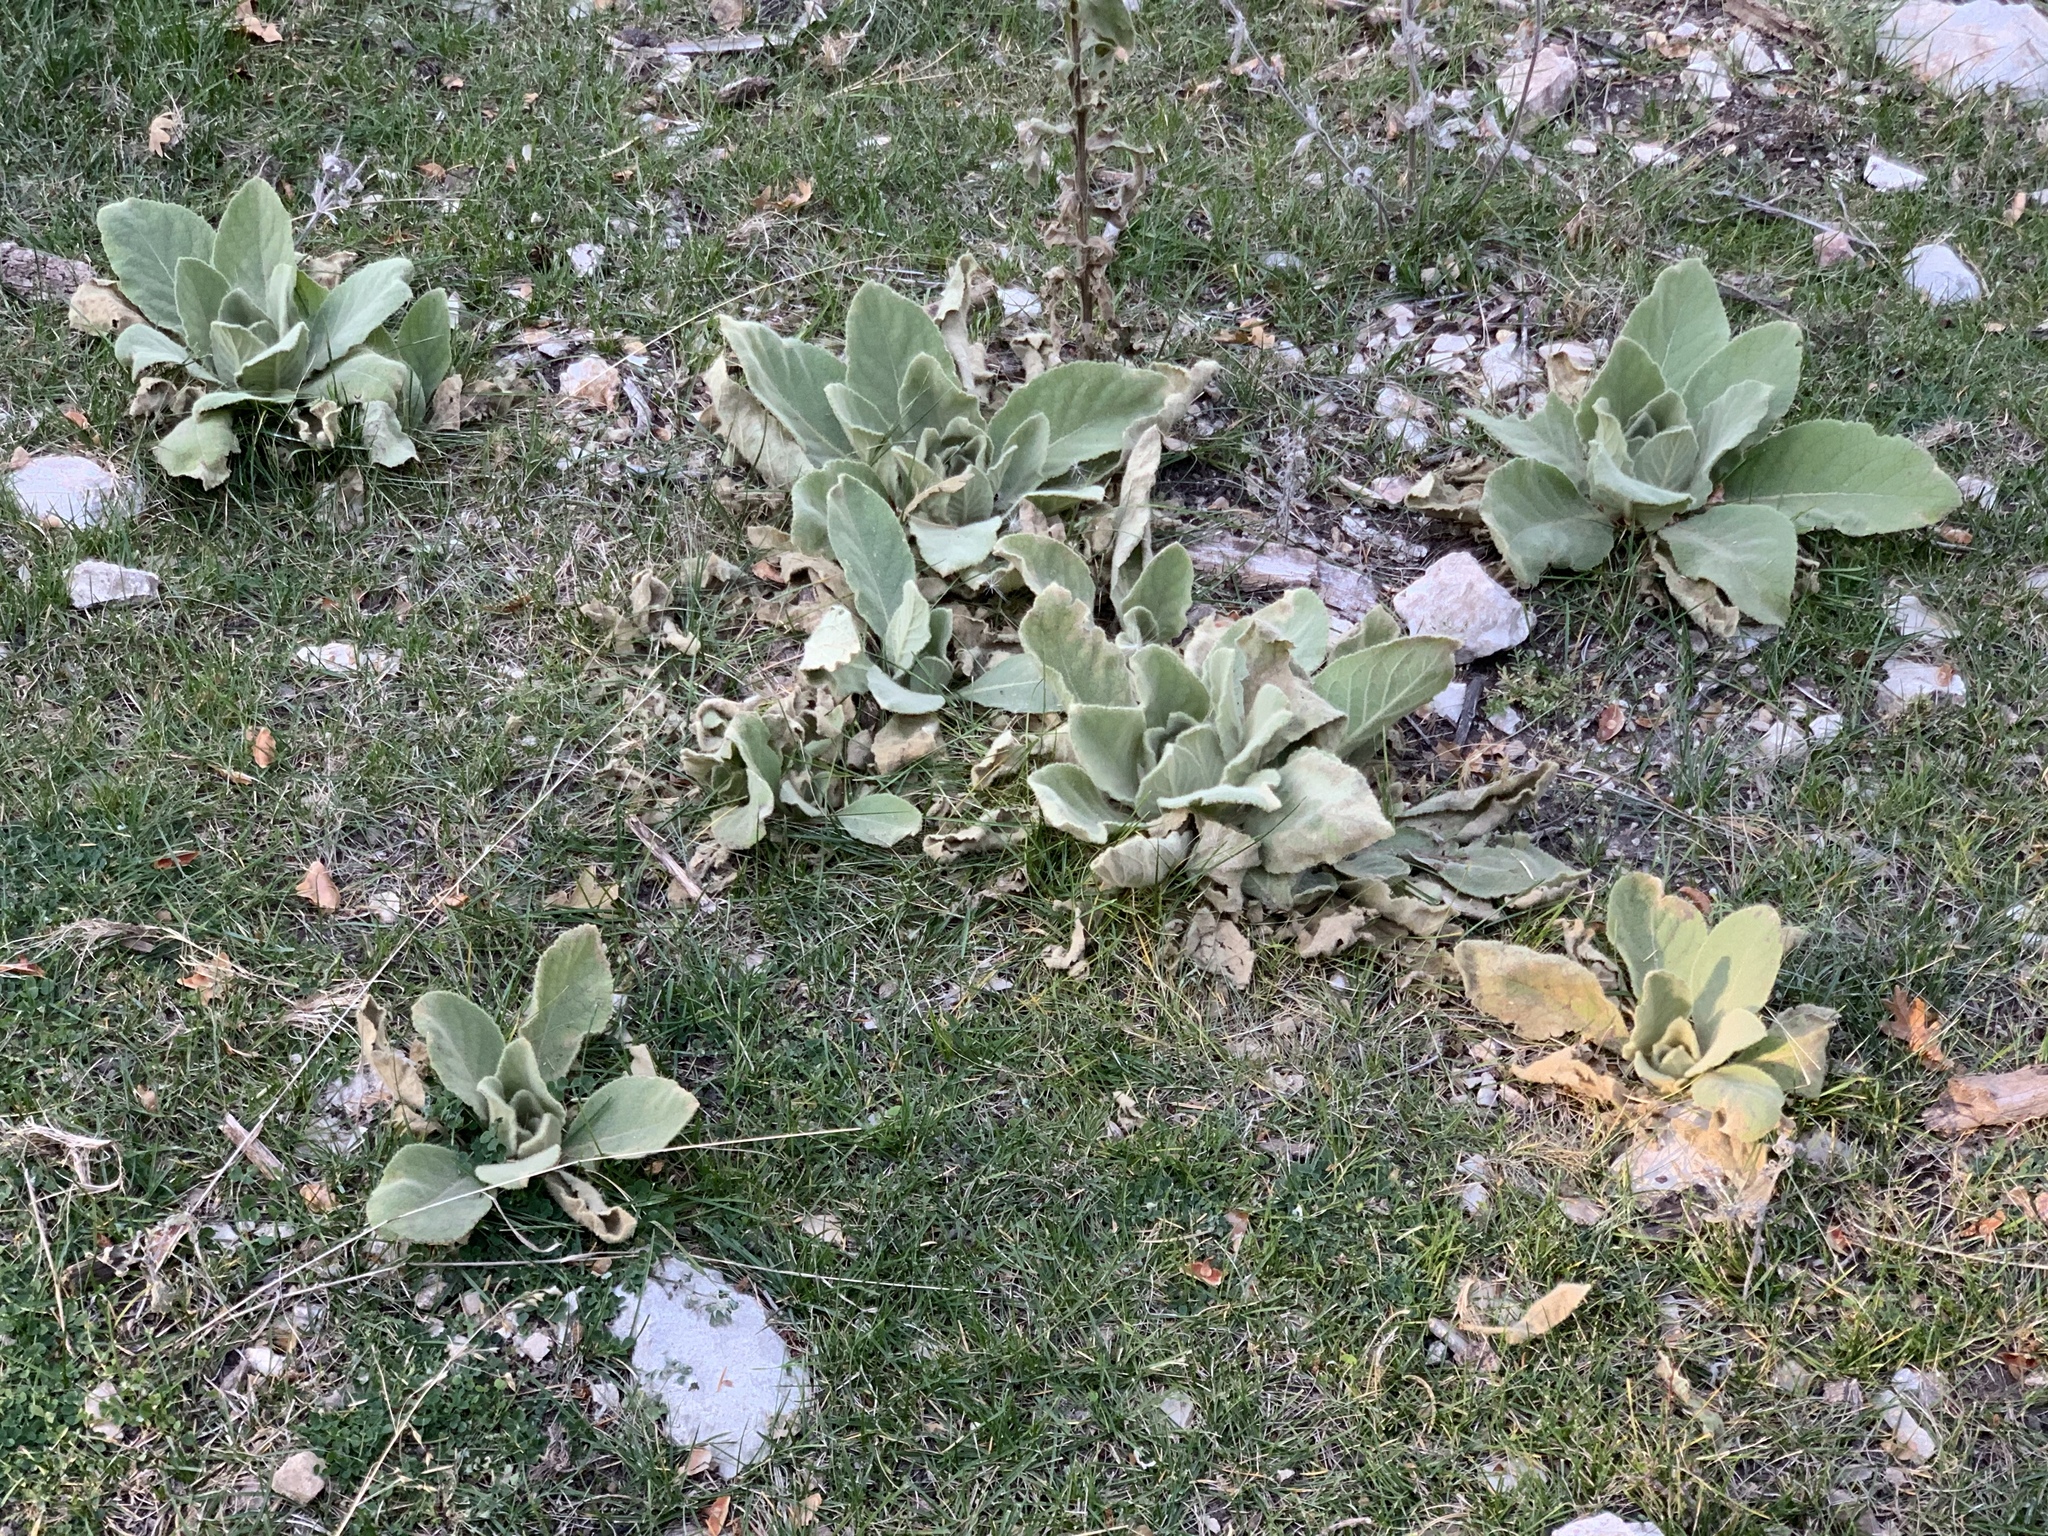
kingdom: Plantae
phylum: Tracheophyta
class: Magnoliopsida
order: Lamiales
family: Scrophulariaceae
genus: Verbascum
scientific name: Verbascum thapsus
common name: Common mullein
